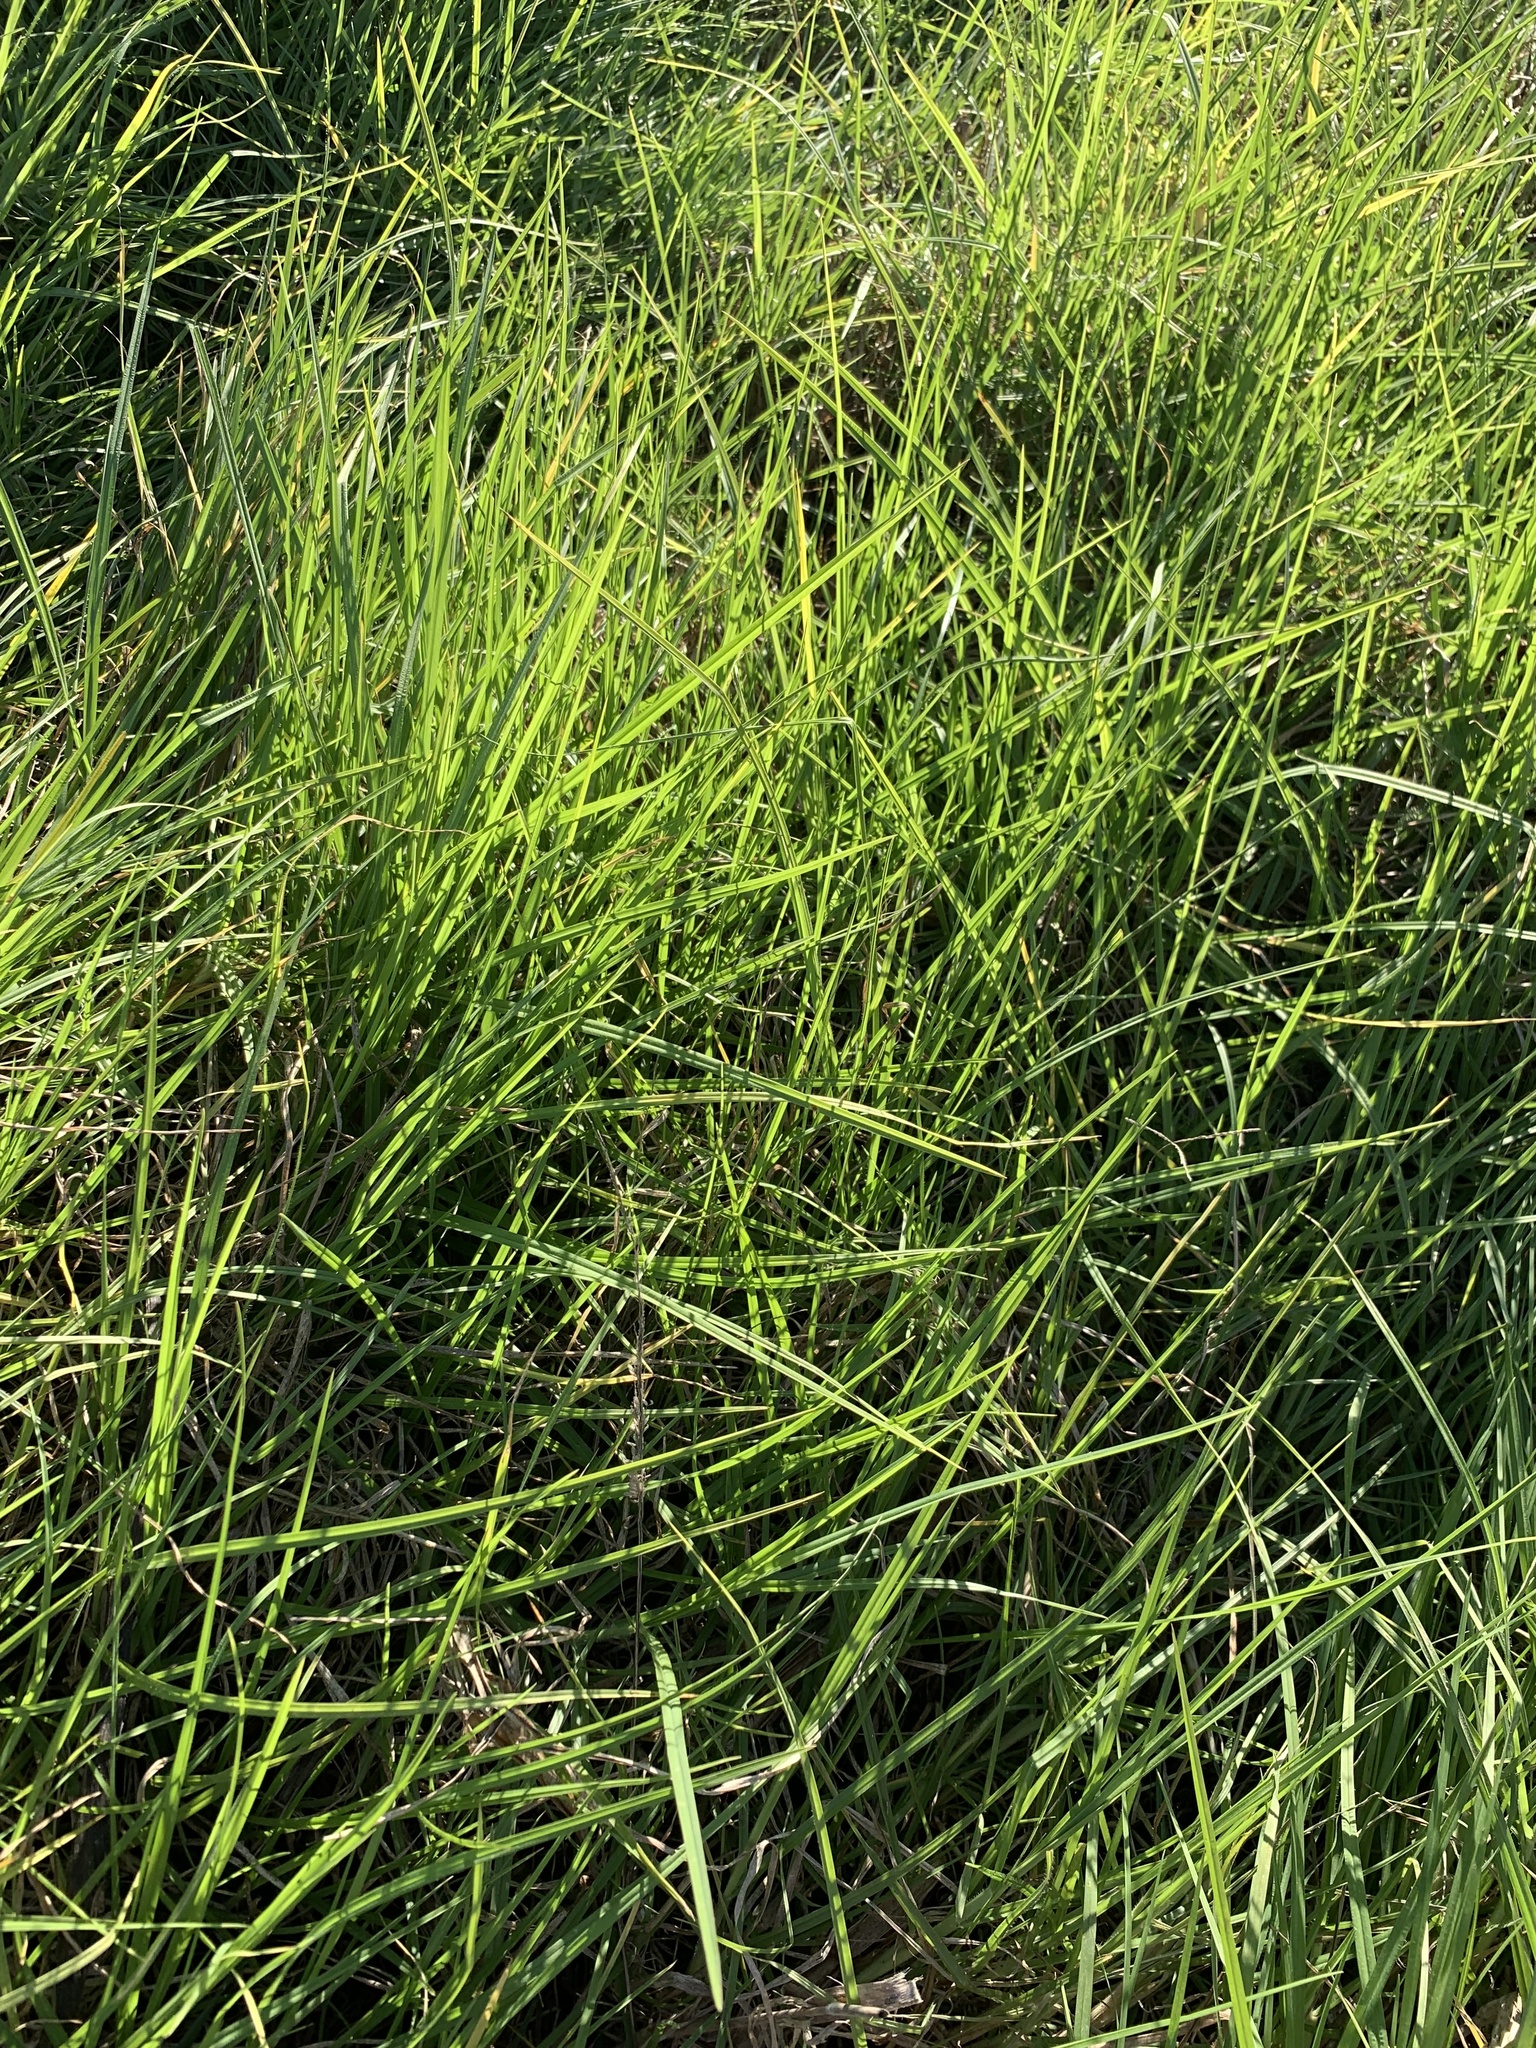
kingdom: Plantae
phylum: Tracheophyta
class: Liliopsida
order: Poales
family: Poaceae
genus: Cenchrus
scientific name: Cenchrus clandestinus
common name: Kikuyugrass
